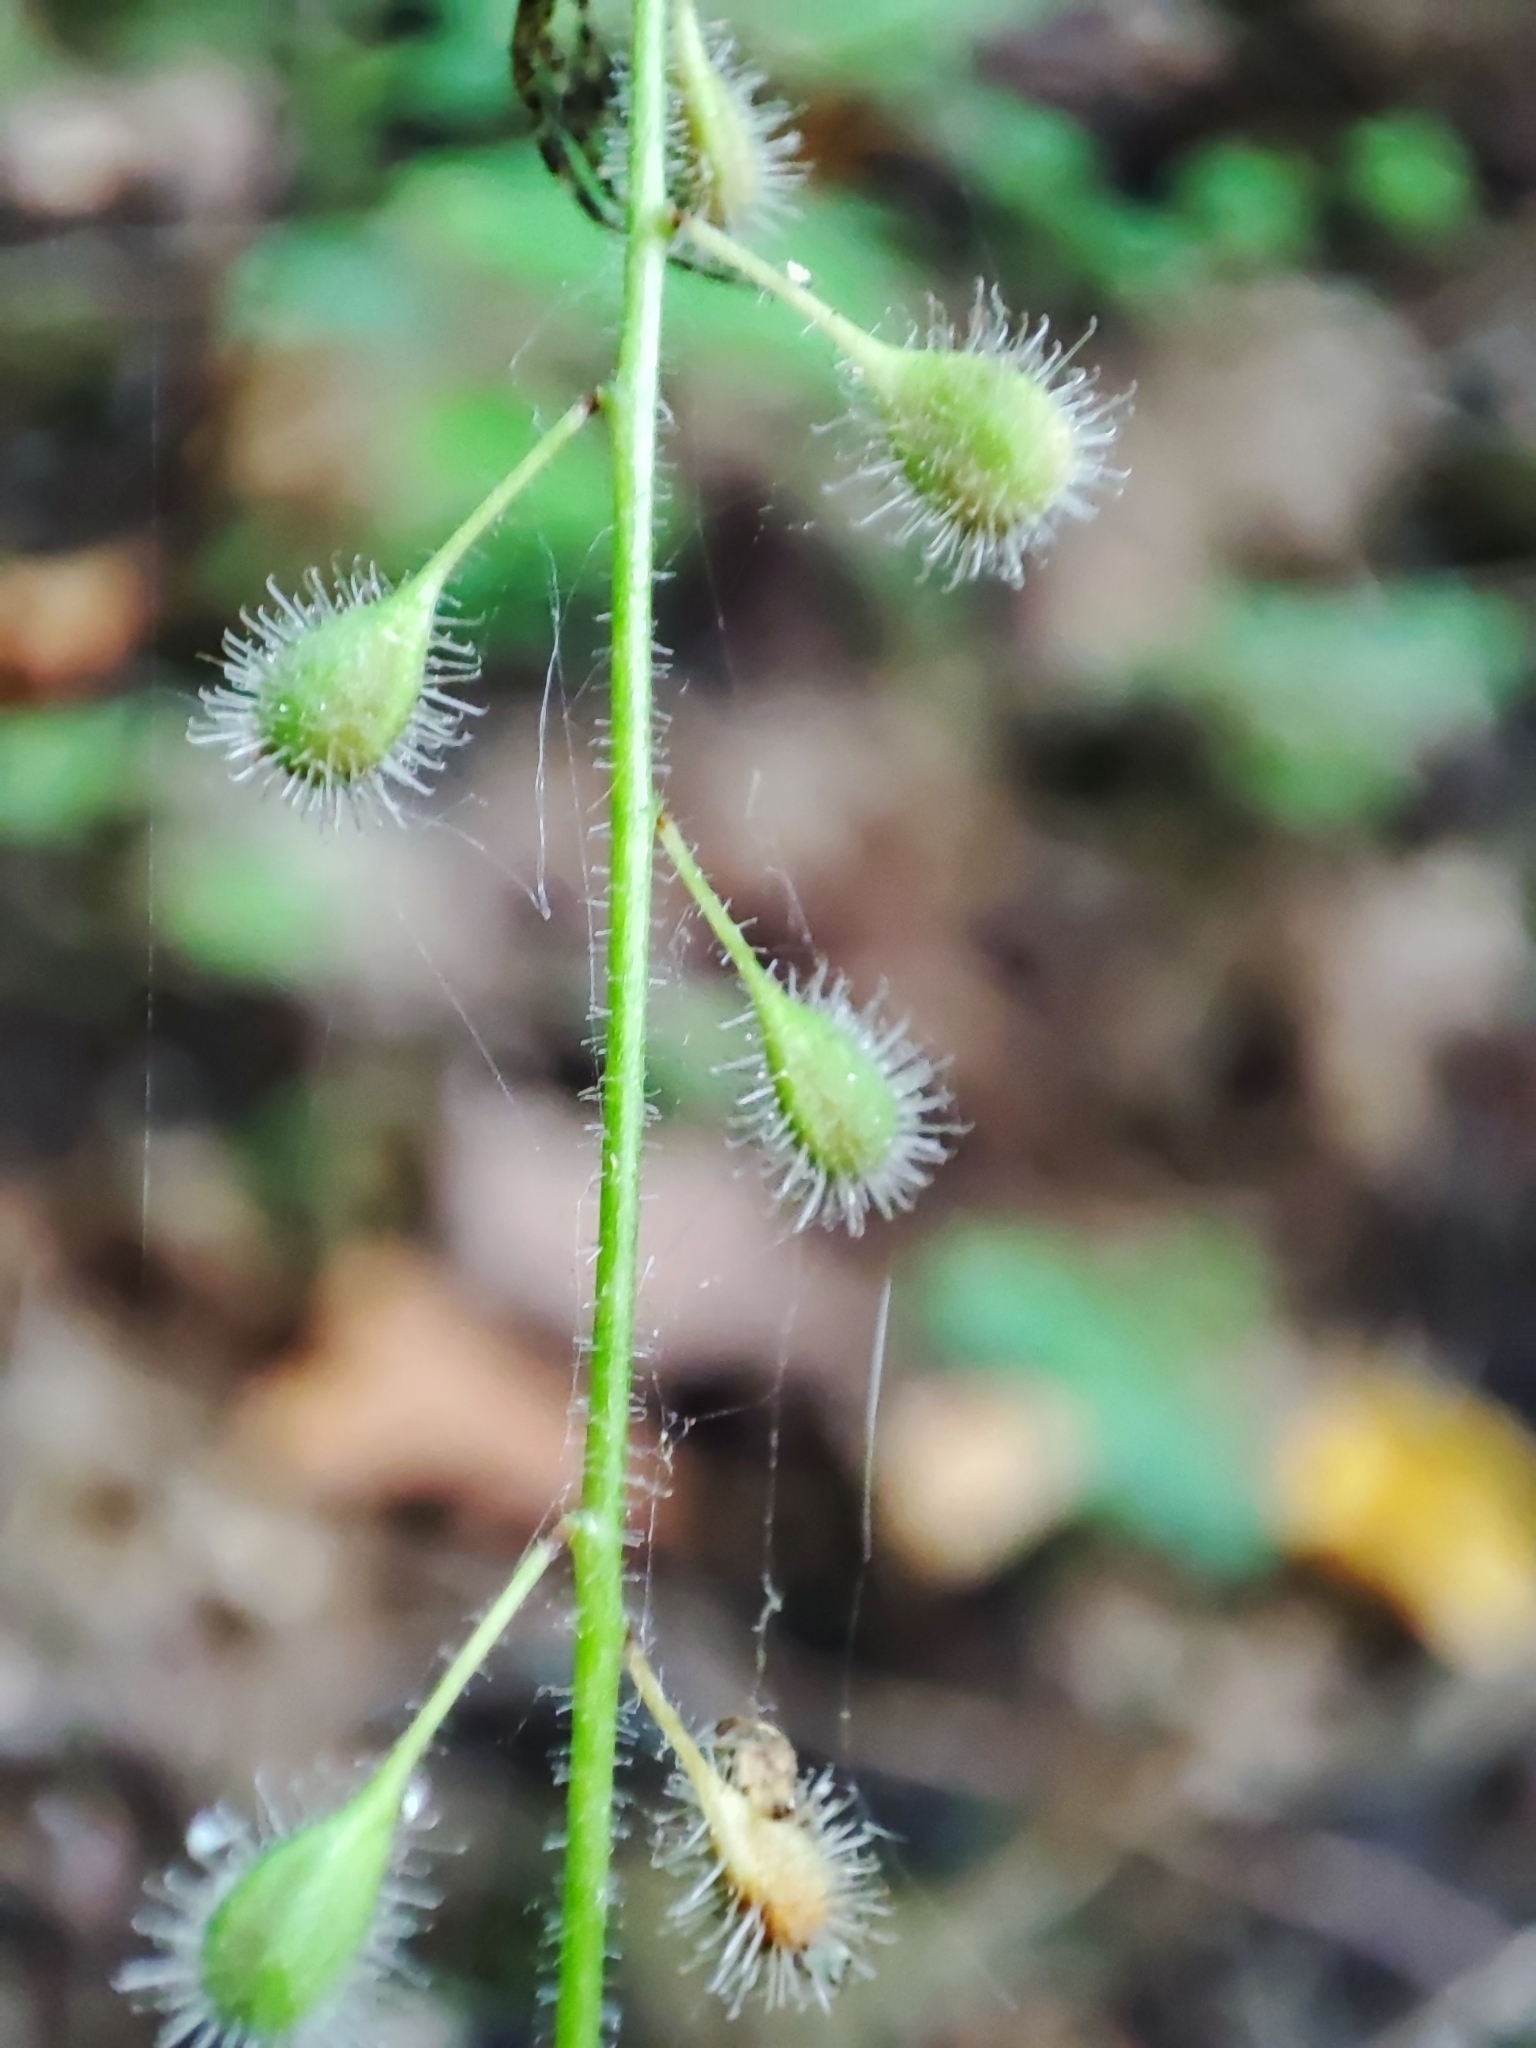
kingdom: Plantae
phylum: Tracheophyta
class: Magnoliopsida
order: Myrtales
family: Onagraceae
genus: Circaea
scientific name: Circaea lutetiana
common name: Enchanter's-nightshade
